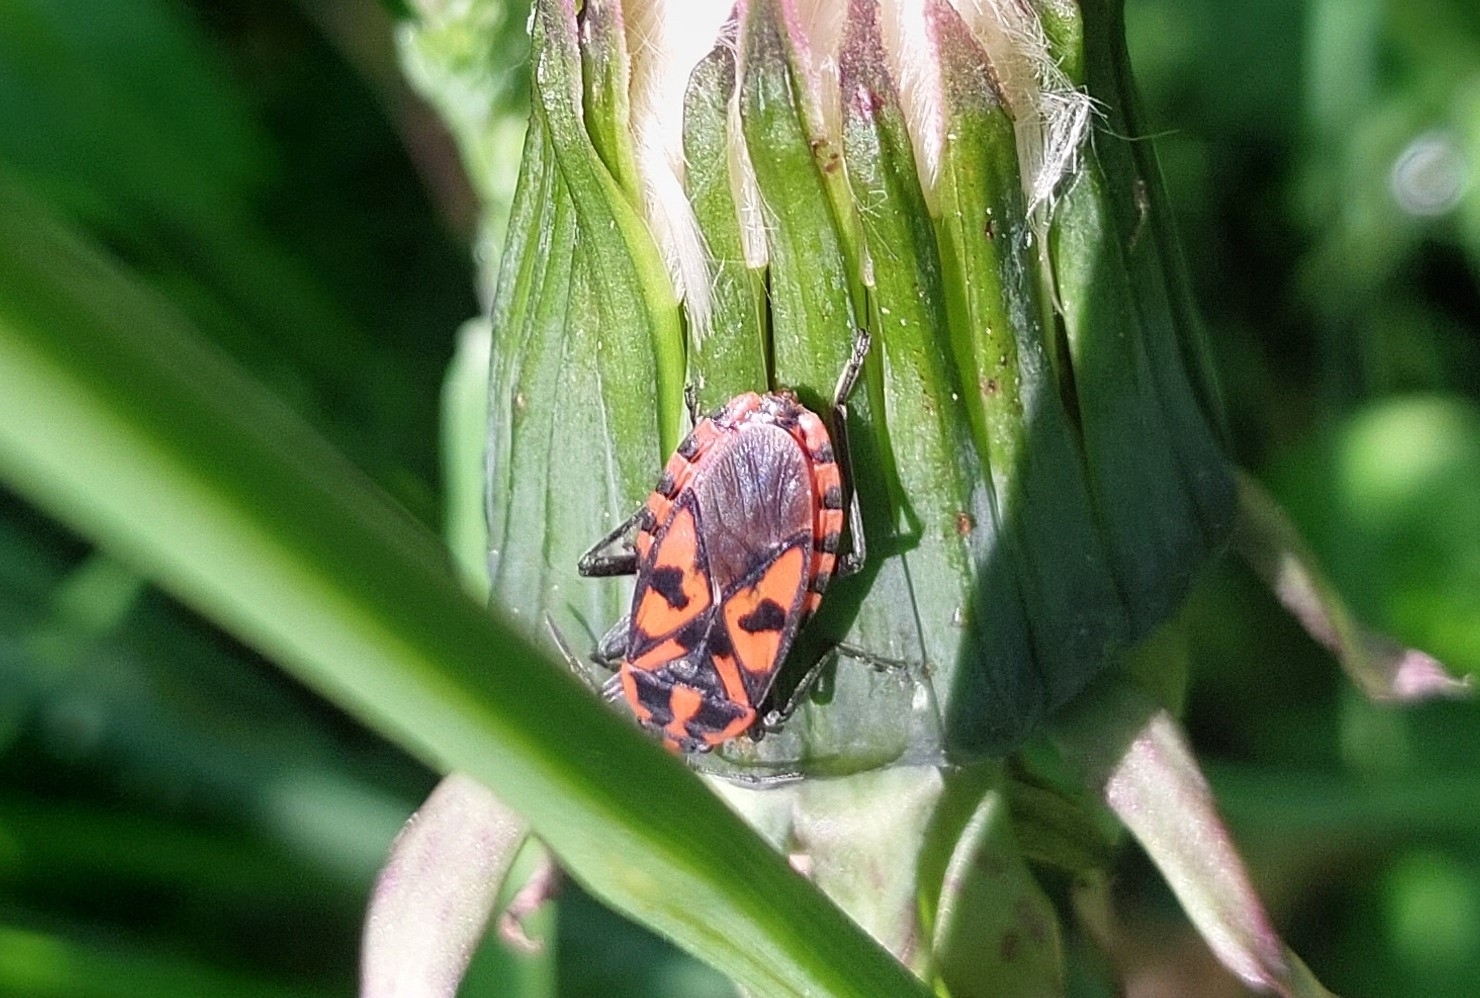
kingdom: Animalia
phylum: Arthropoda
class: Insecta
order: Hemiptera
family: Lygaeidae
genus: Spilostethus
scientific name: Spilostethus saxatilis
